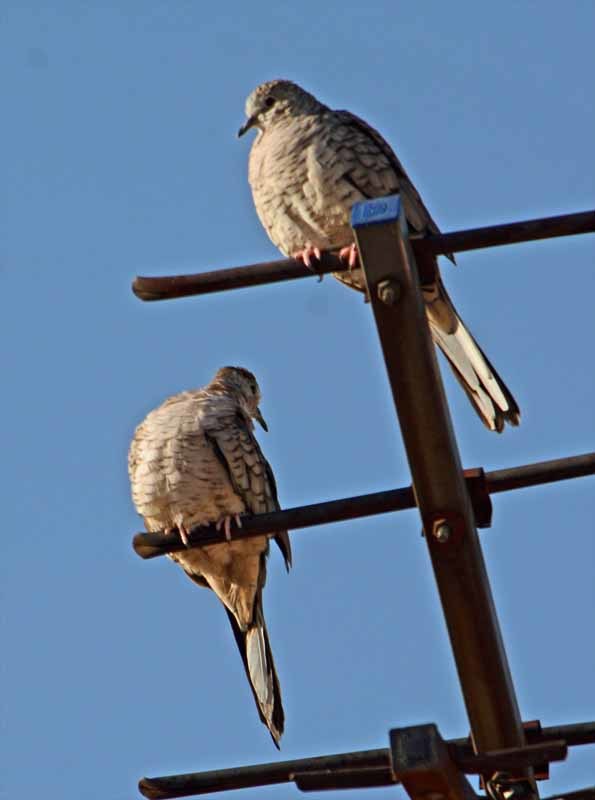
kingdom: Animalia
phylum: Chordata
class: Aves
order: Columbiformes
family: Columbidae
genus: Columbina
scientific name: Columbina inca
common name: Inca dove
